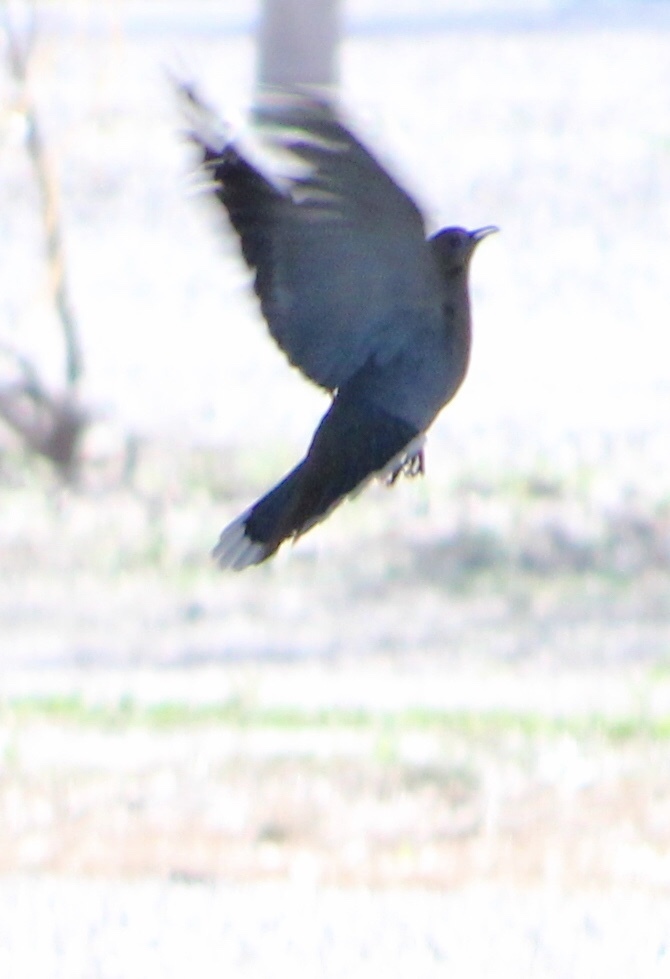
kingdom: Animalia
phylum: Chordata
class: Aves
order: Columbiformes
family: Columbidae
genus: Zenaida
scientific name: Zenaida asiatica
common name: White-winged dove
